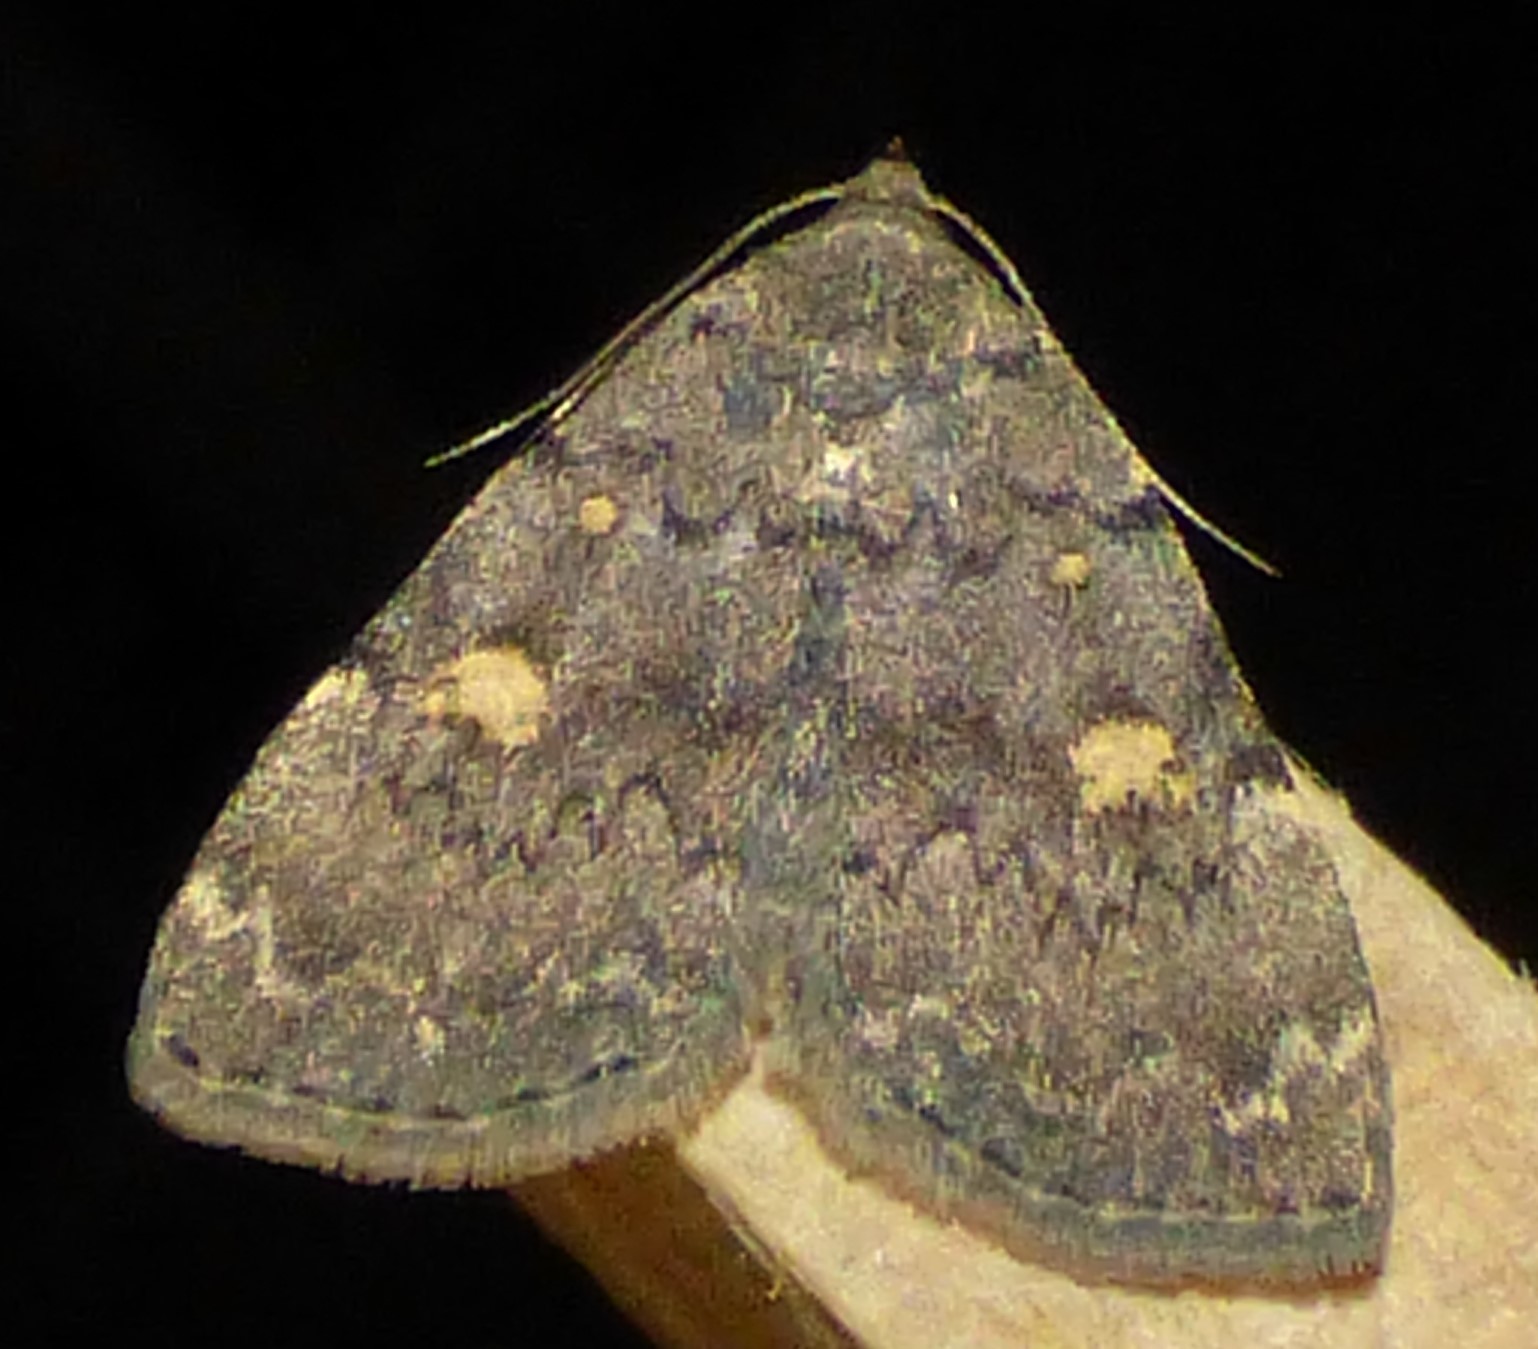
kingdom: Animalia
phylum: Arthropoda
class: Insecta
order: Lepidoptera
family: Erebidae
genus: Idia
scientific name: Idia aemula
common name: Common idia moth
